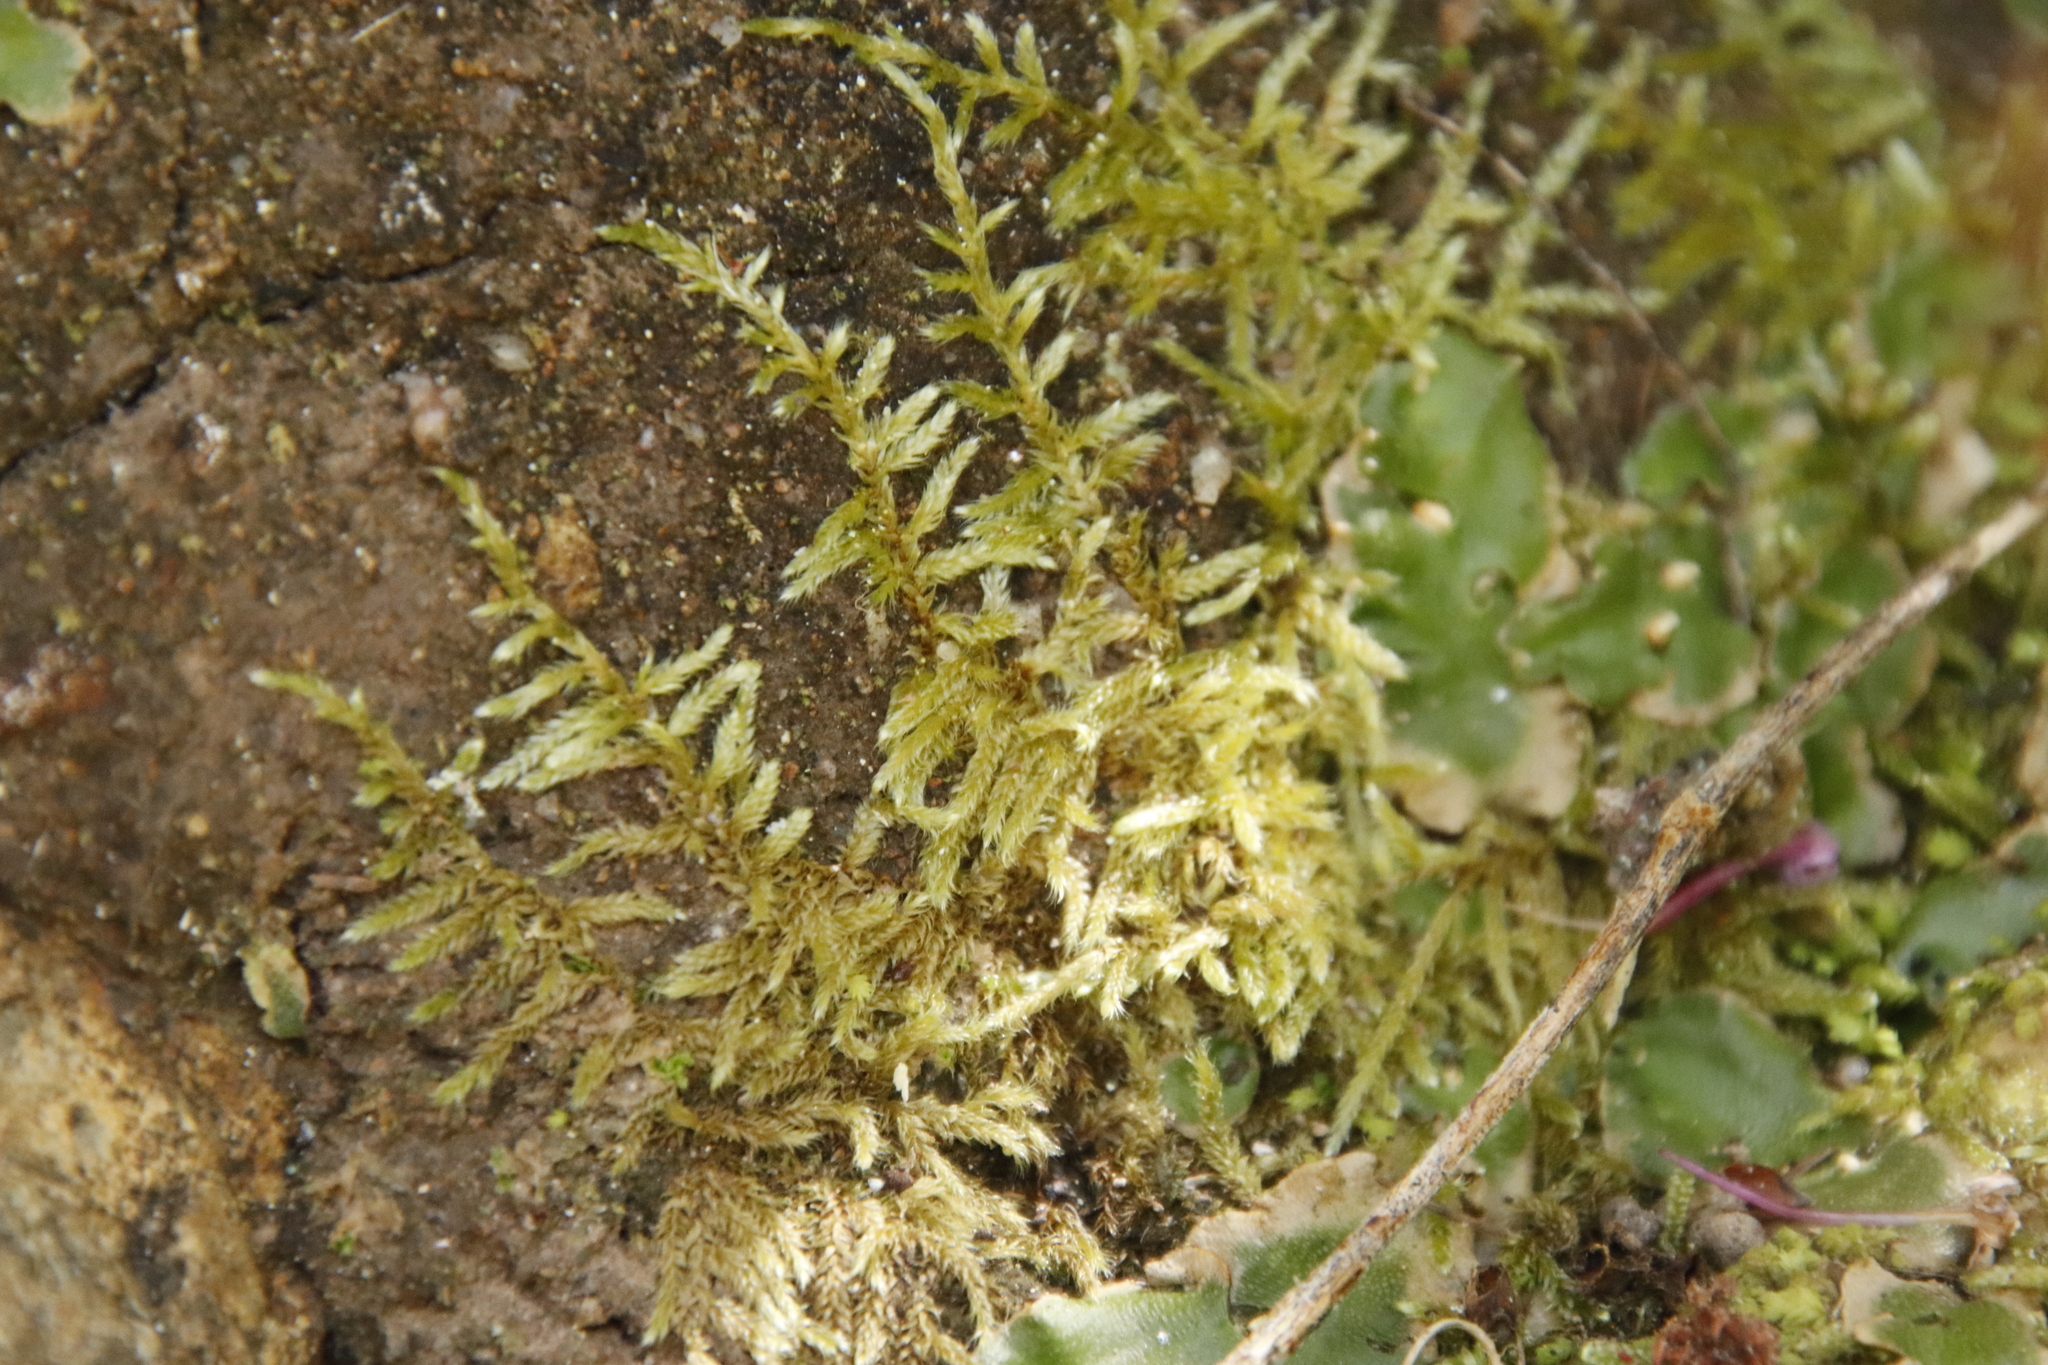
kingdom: Plantae
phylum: Bryophyta
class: Bryopsida
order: Hypnales
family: Hypnaceae
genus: Hypnum
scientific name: Hypnum cupressiforme
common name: Cypress-leaved plait-moss
